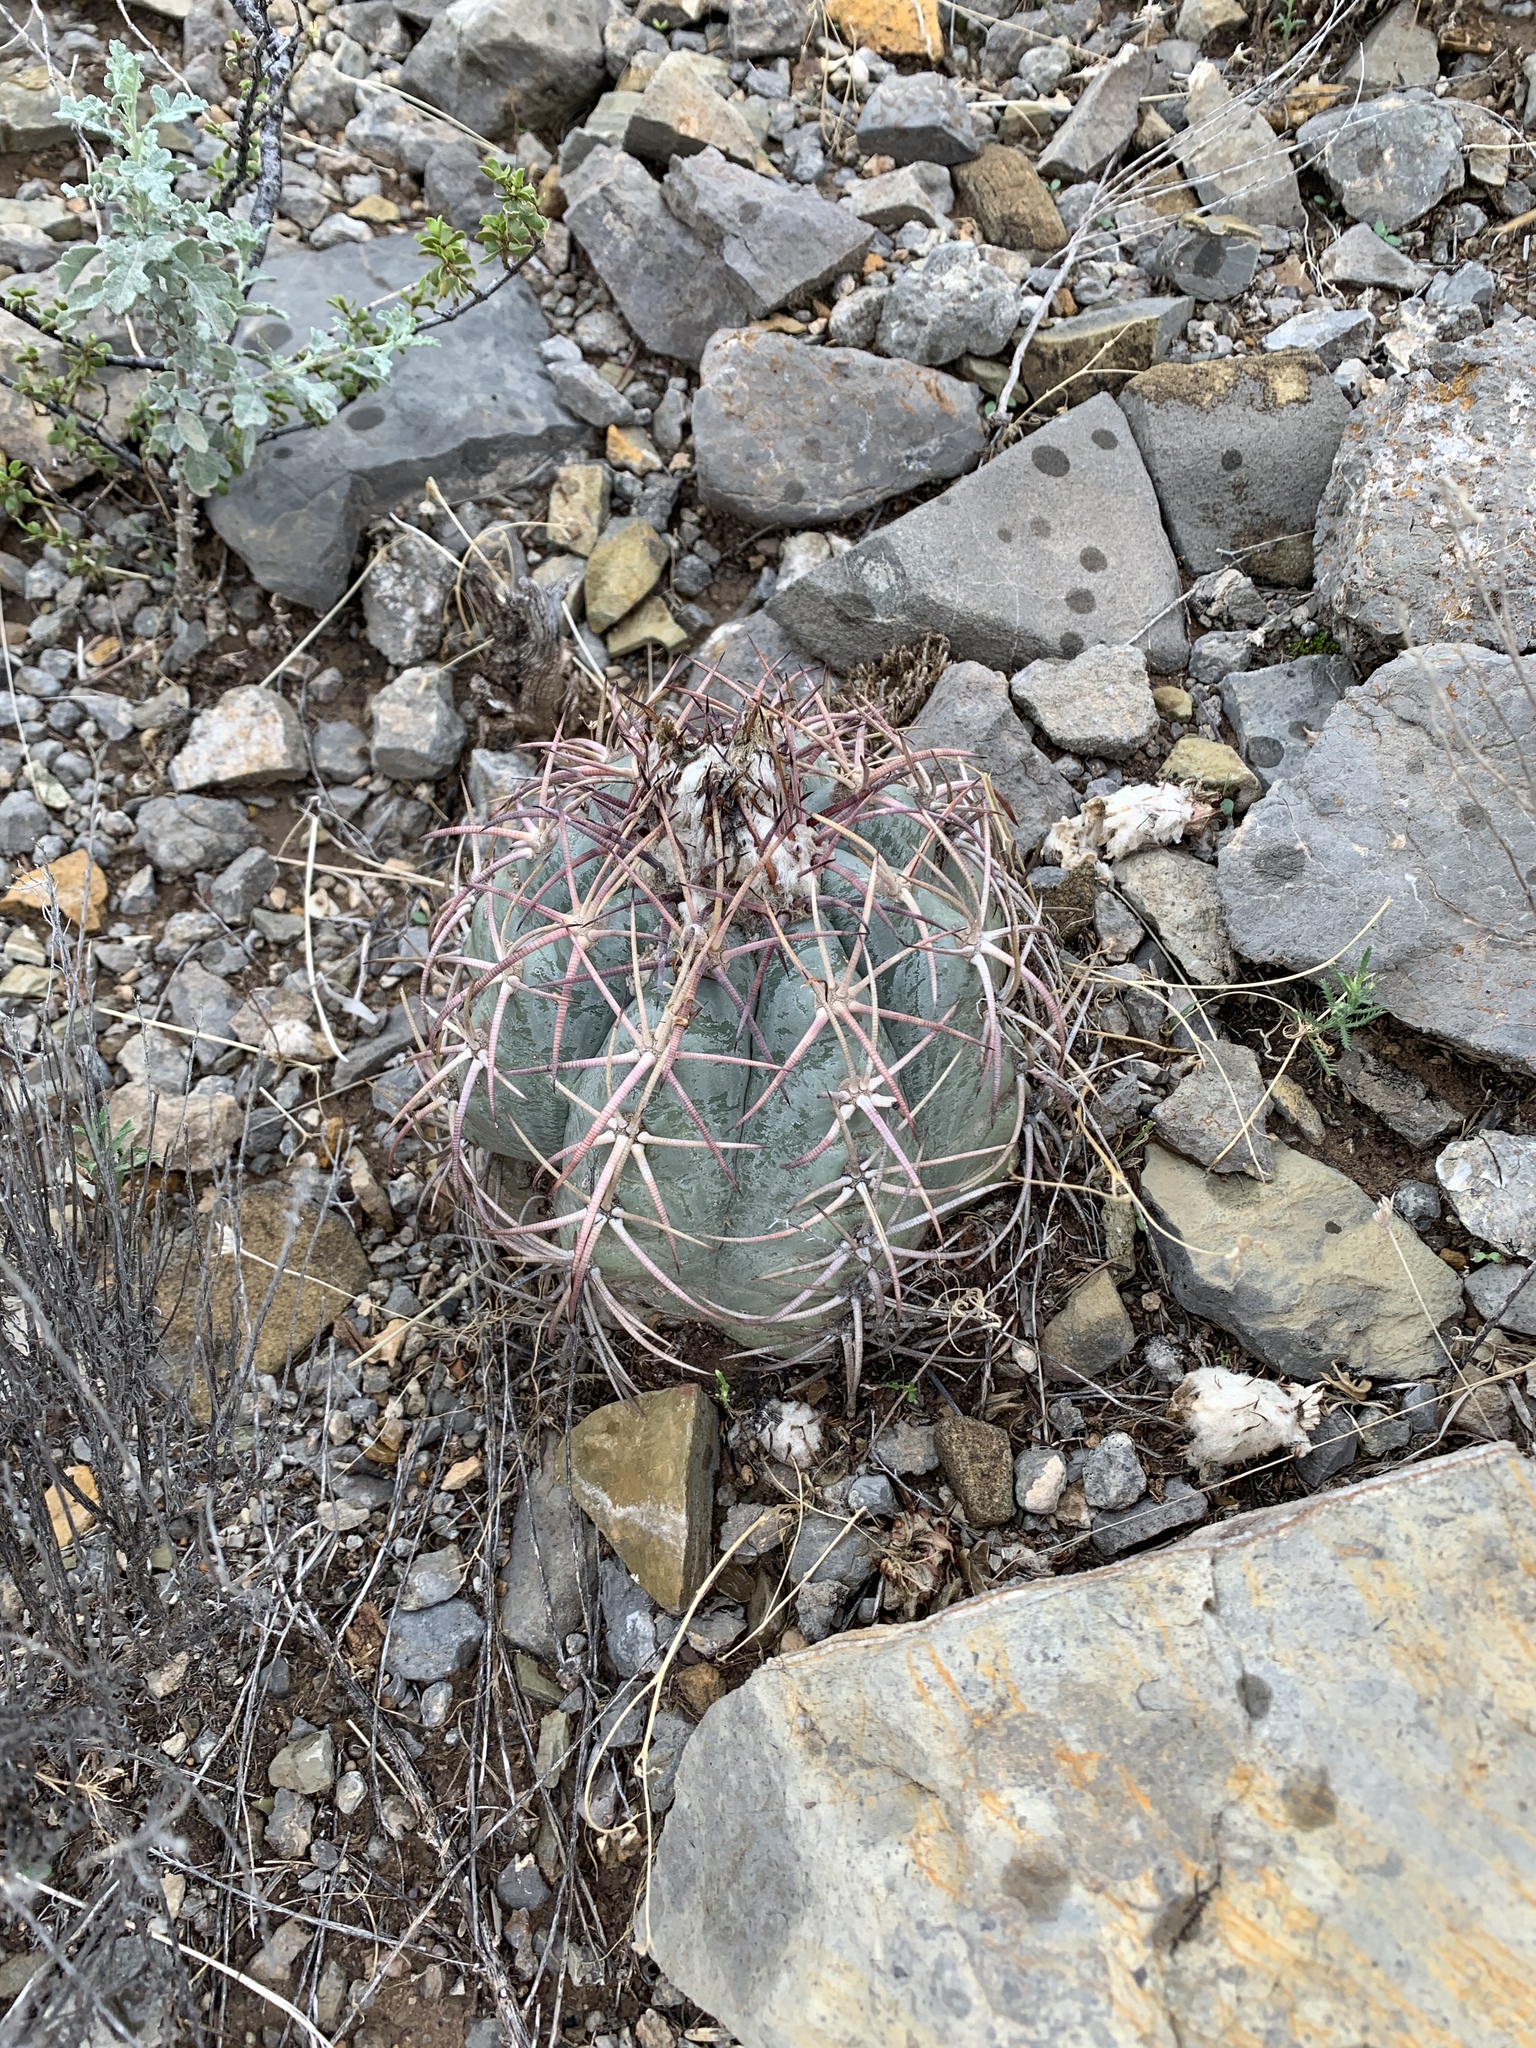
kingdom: Plantae
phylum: Tracheophyta
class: Magnoliopsida
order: Caryophyllales
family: Cactaceae
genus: Echinocactus
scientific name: Echinocactus horizonthalonius
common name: Devilshead
